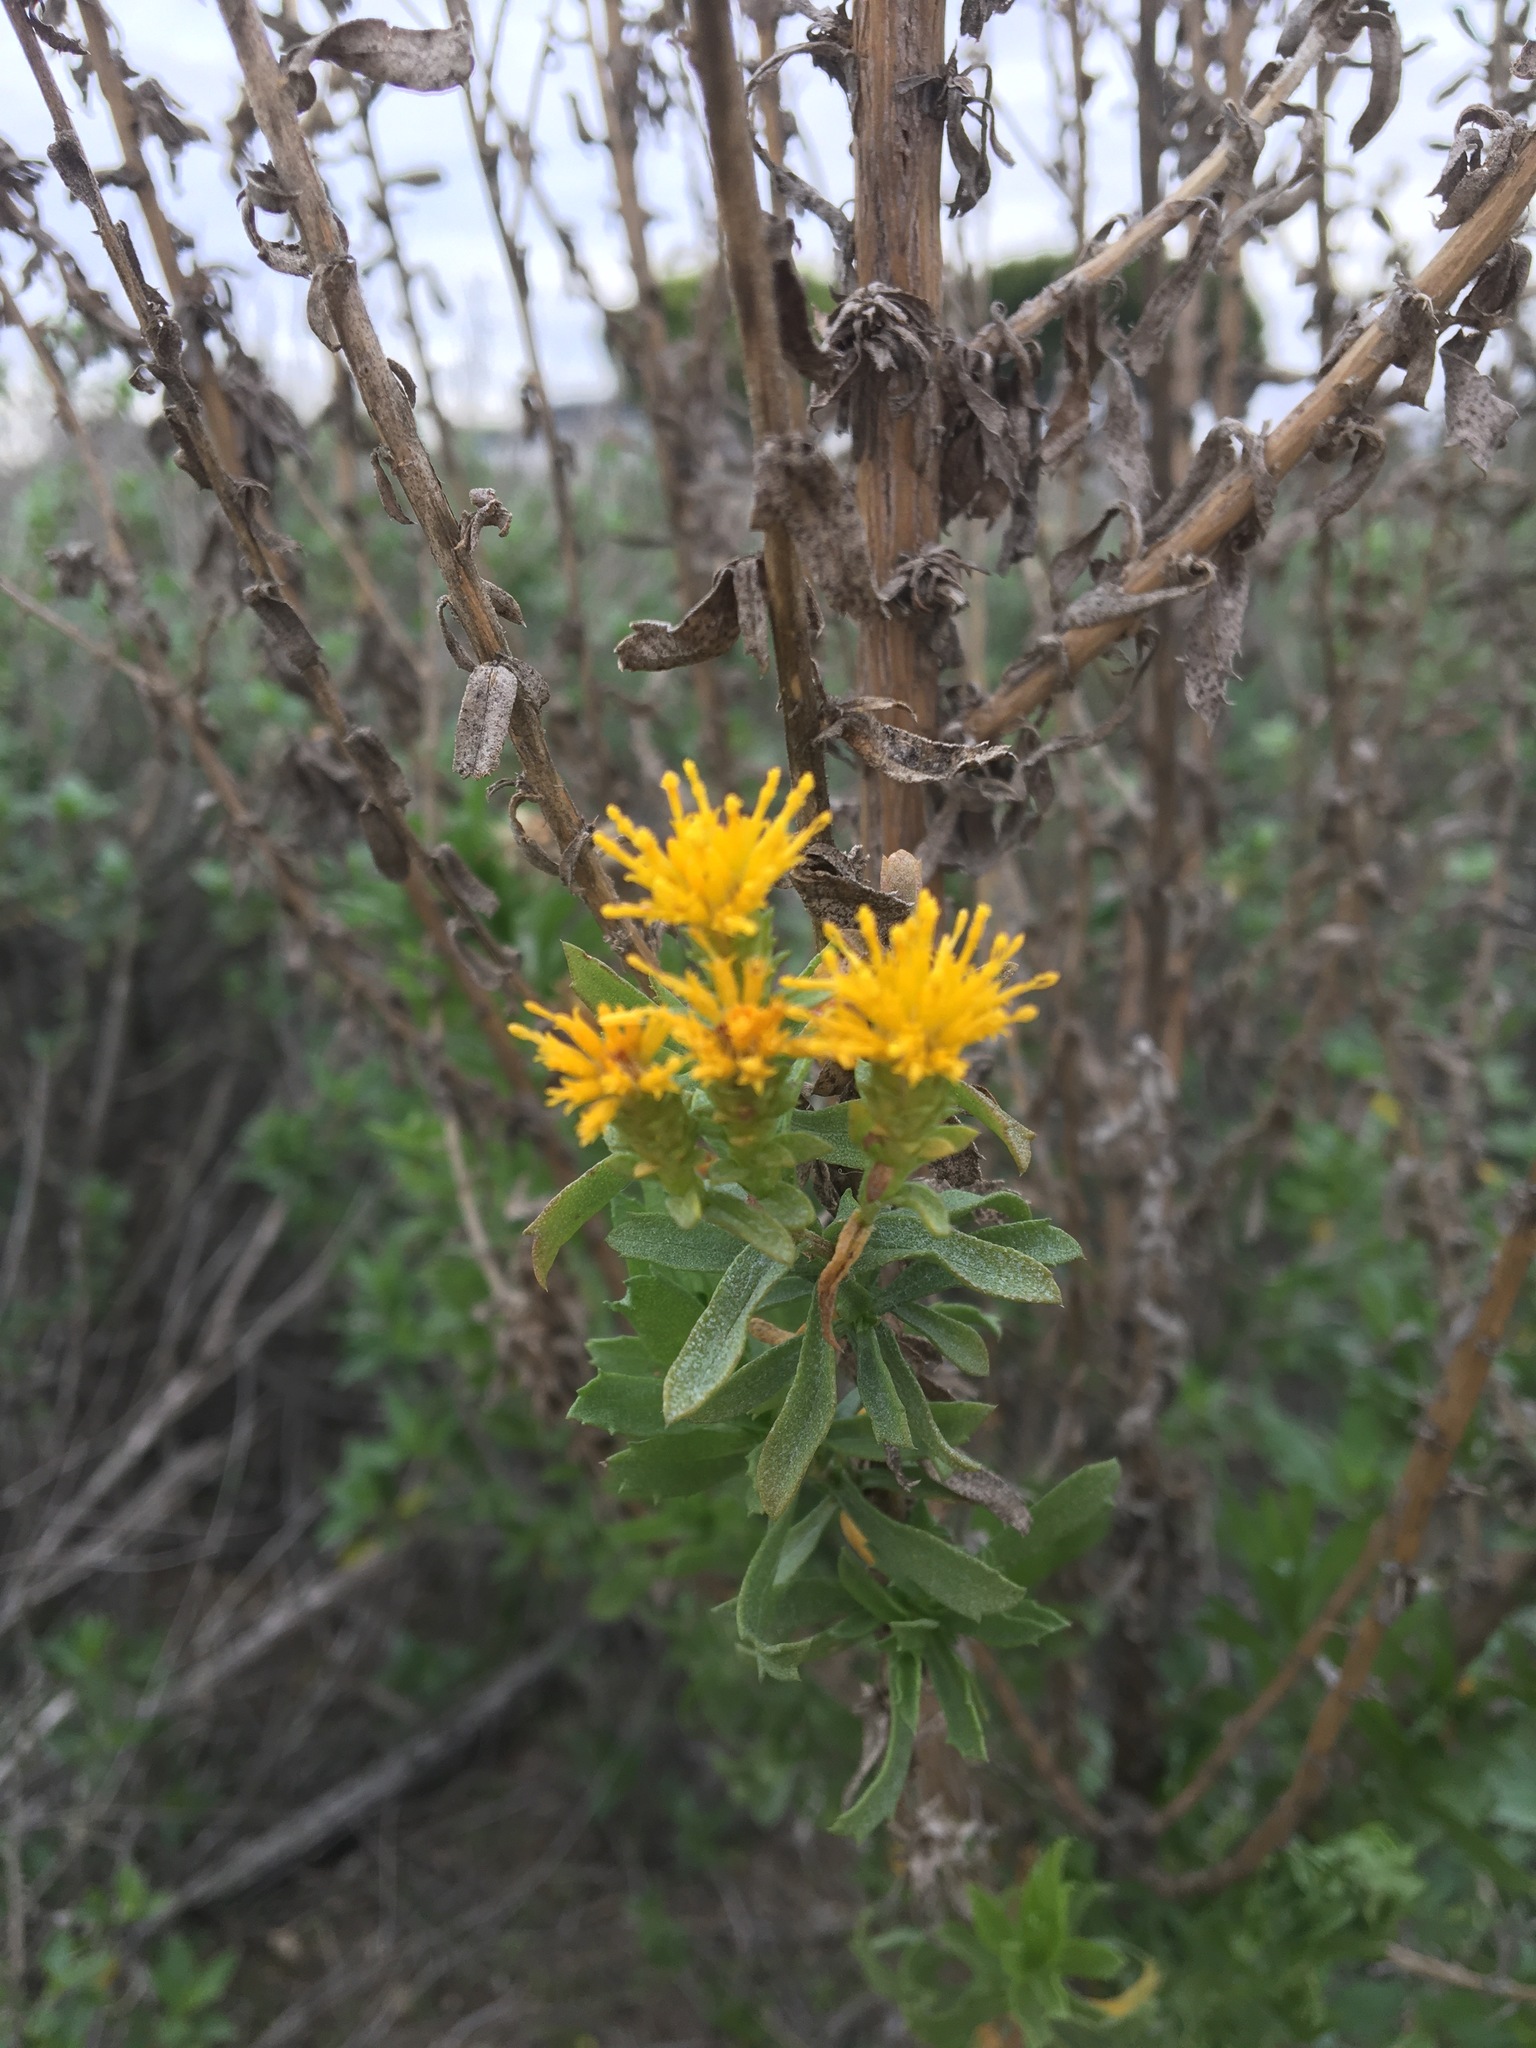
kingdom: Plantae
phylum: Tracheophyta
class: Magnoliopsida
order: Asterales
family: Asteraceae
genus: Isocoma
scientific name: Isocoma menziesii
